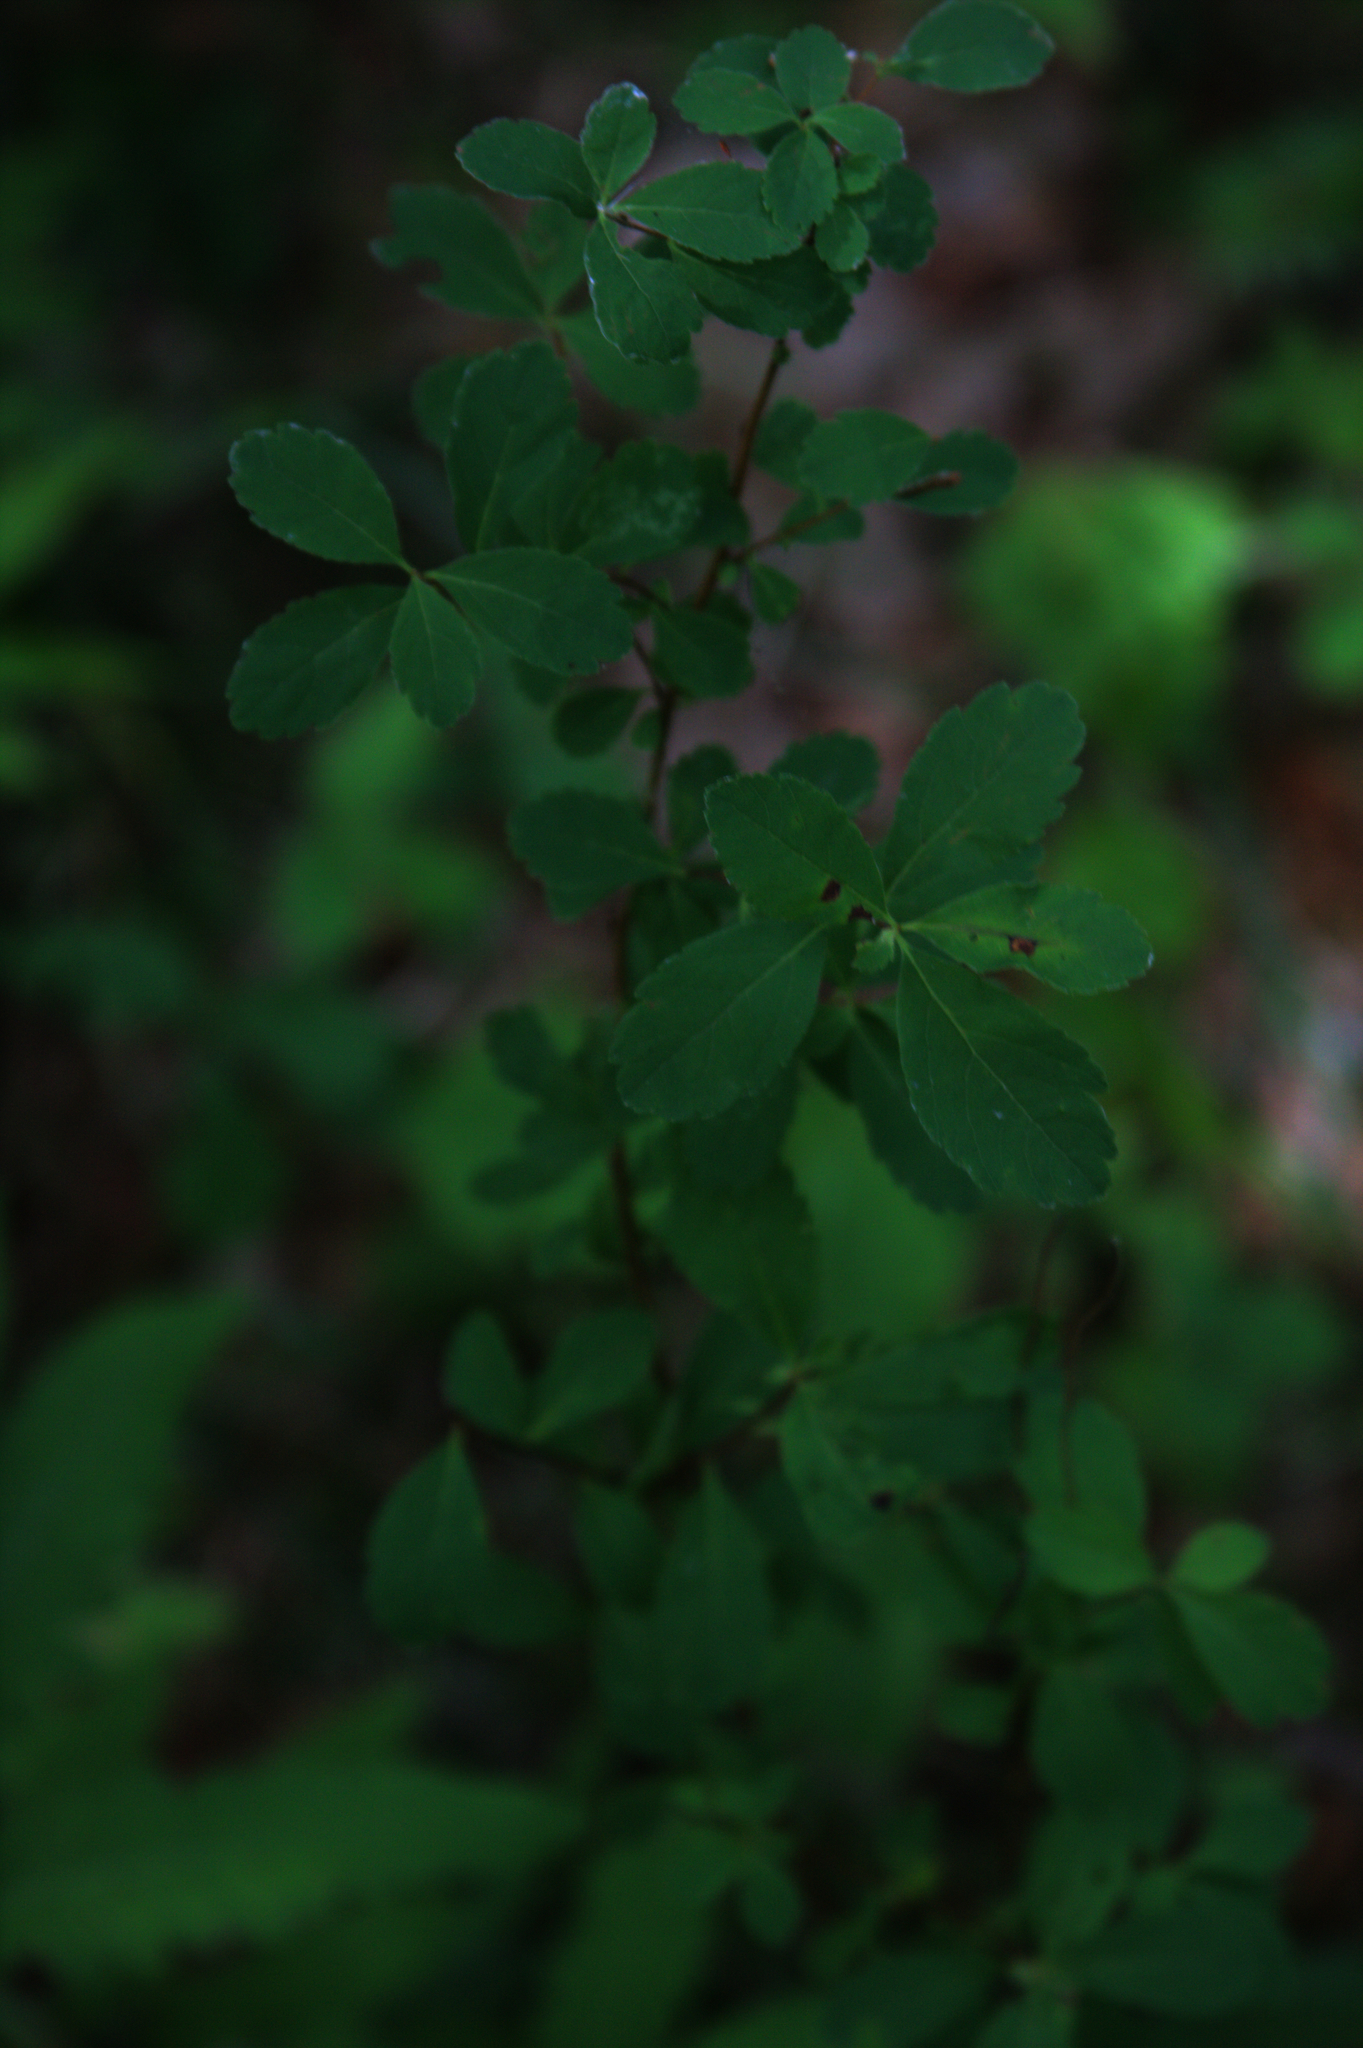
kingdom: Plantae
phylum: Tracheophyta
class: Magnoliopsida
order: Rosales
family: Rosaceae
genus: Spiraea
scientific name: Spiraea alba
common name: Pale bridewort
